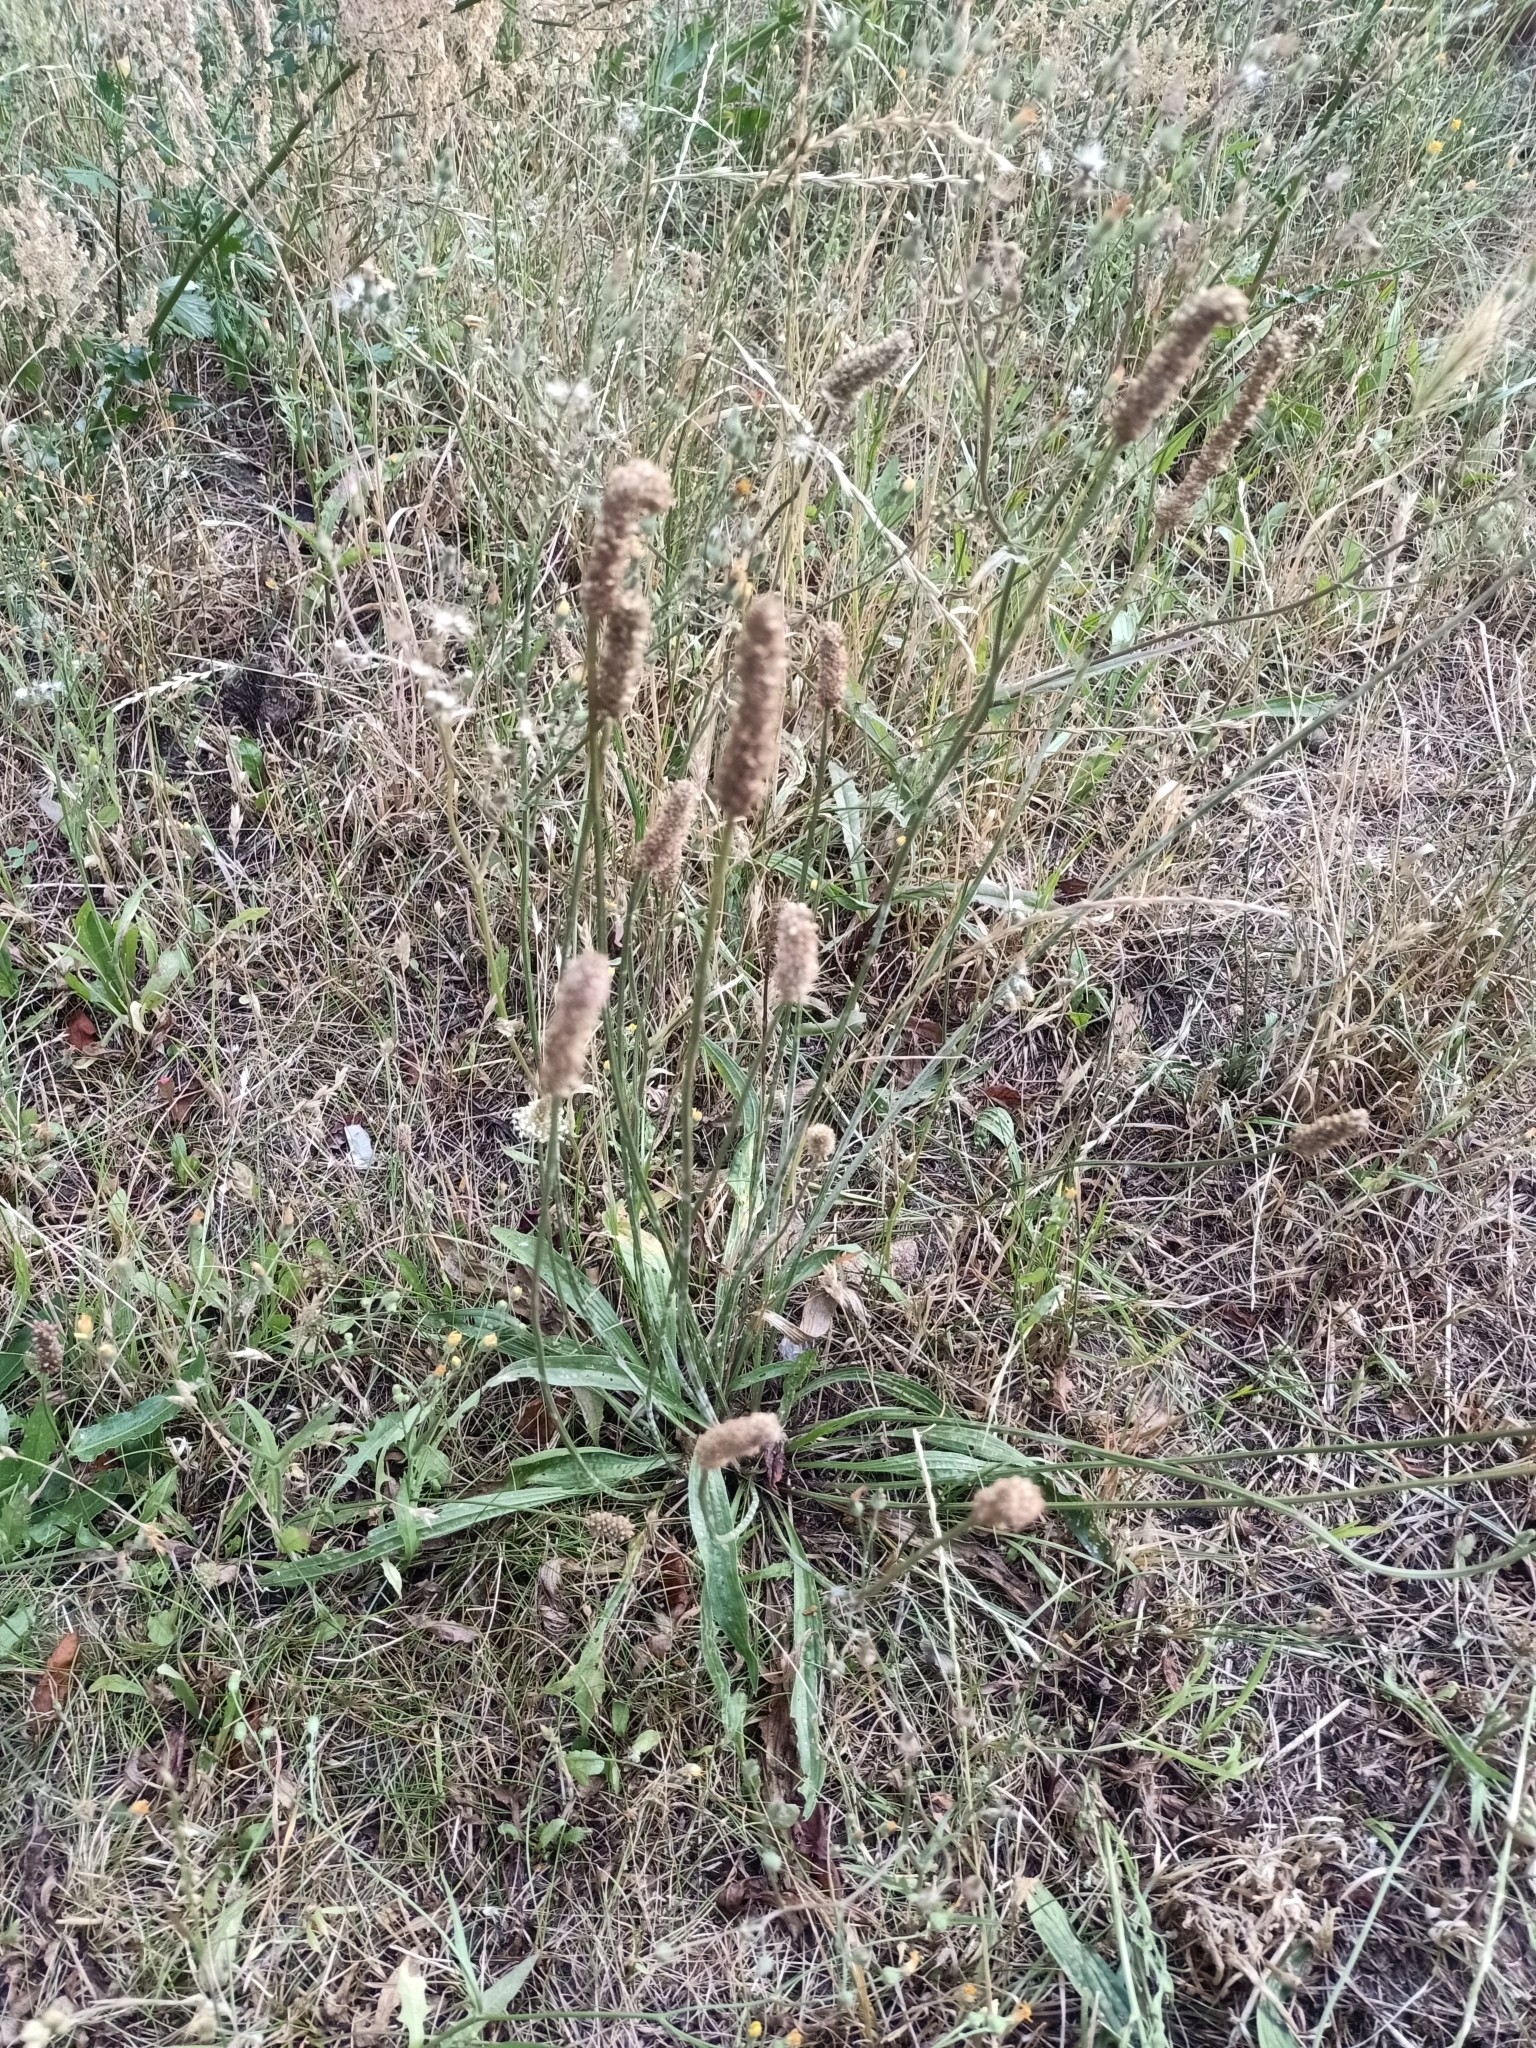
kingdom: Plantae
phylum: Tracheophyta
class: Magnoliopsida
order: Lamiales
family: Plantaginaceae
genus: Plantago
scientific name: Plantago lanceolata
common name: Ribwort plantain
